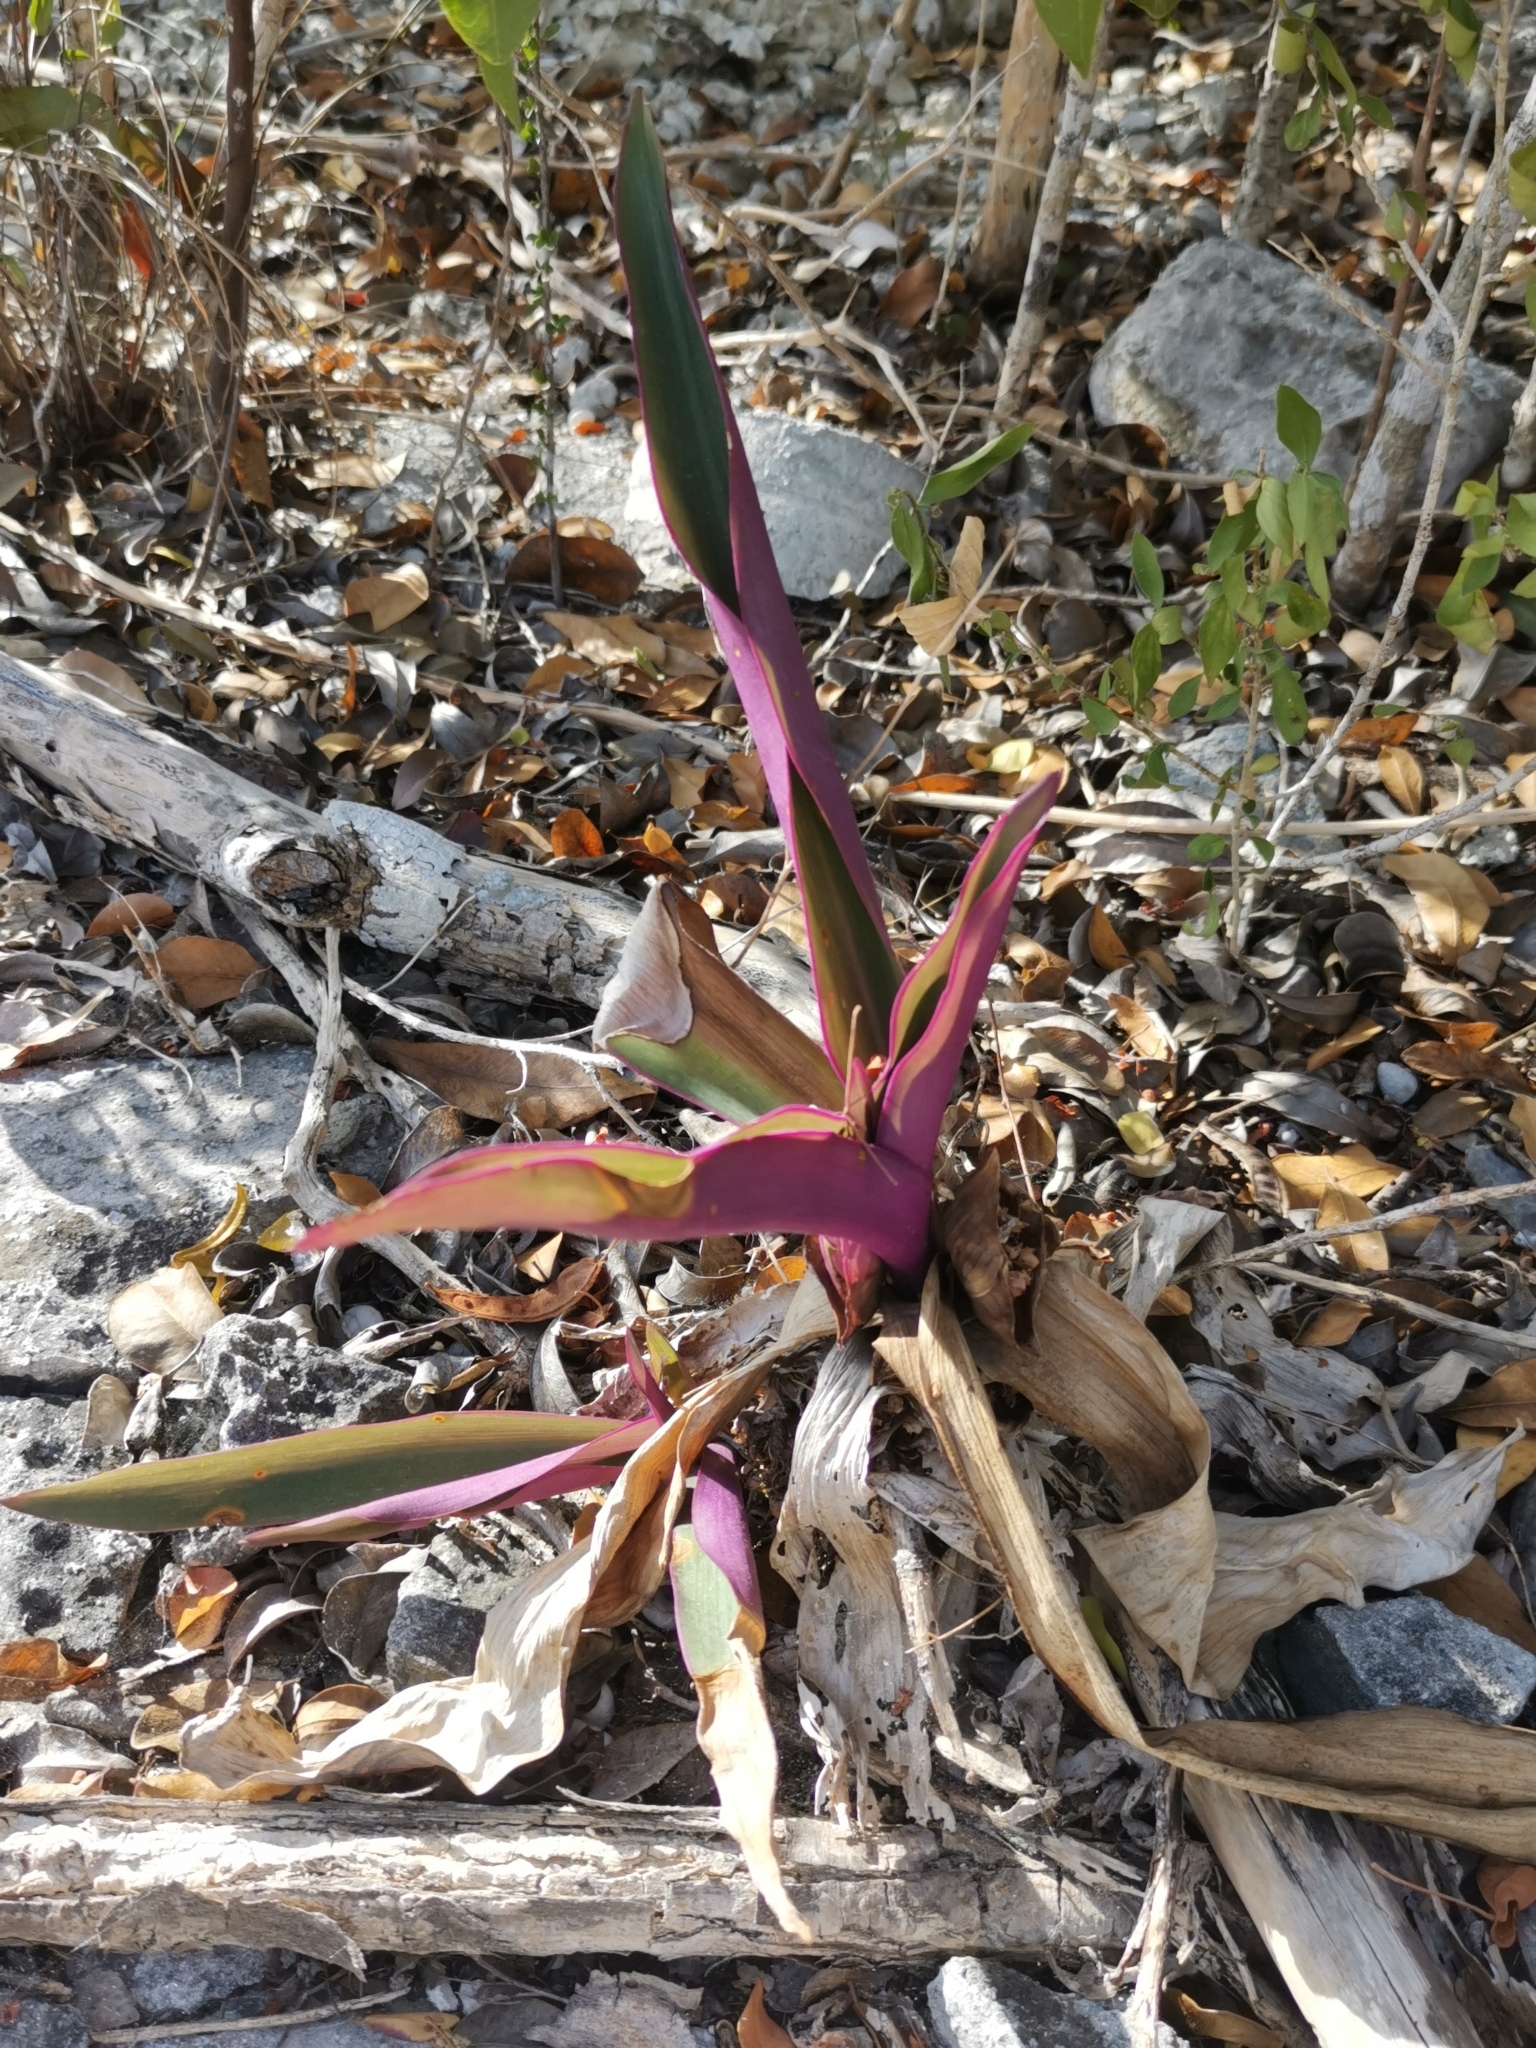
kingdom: Plantae
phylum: Tracheophyta
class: Liliopsida
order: Commelinales
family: Commelinaceae
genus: Tradescantia
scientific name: Tradescantia spathacea
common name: Boatlily
